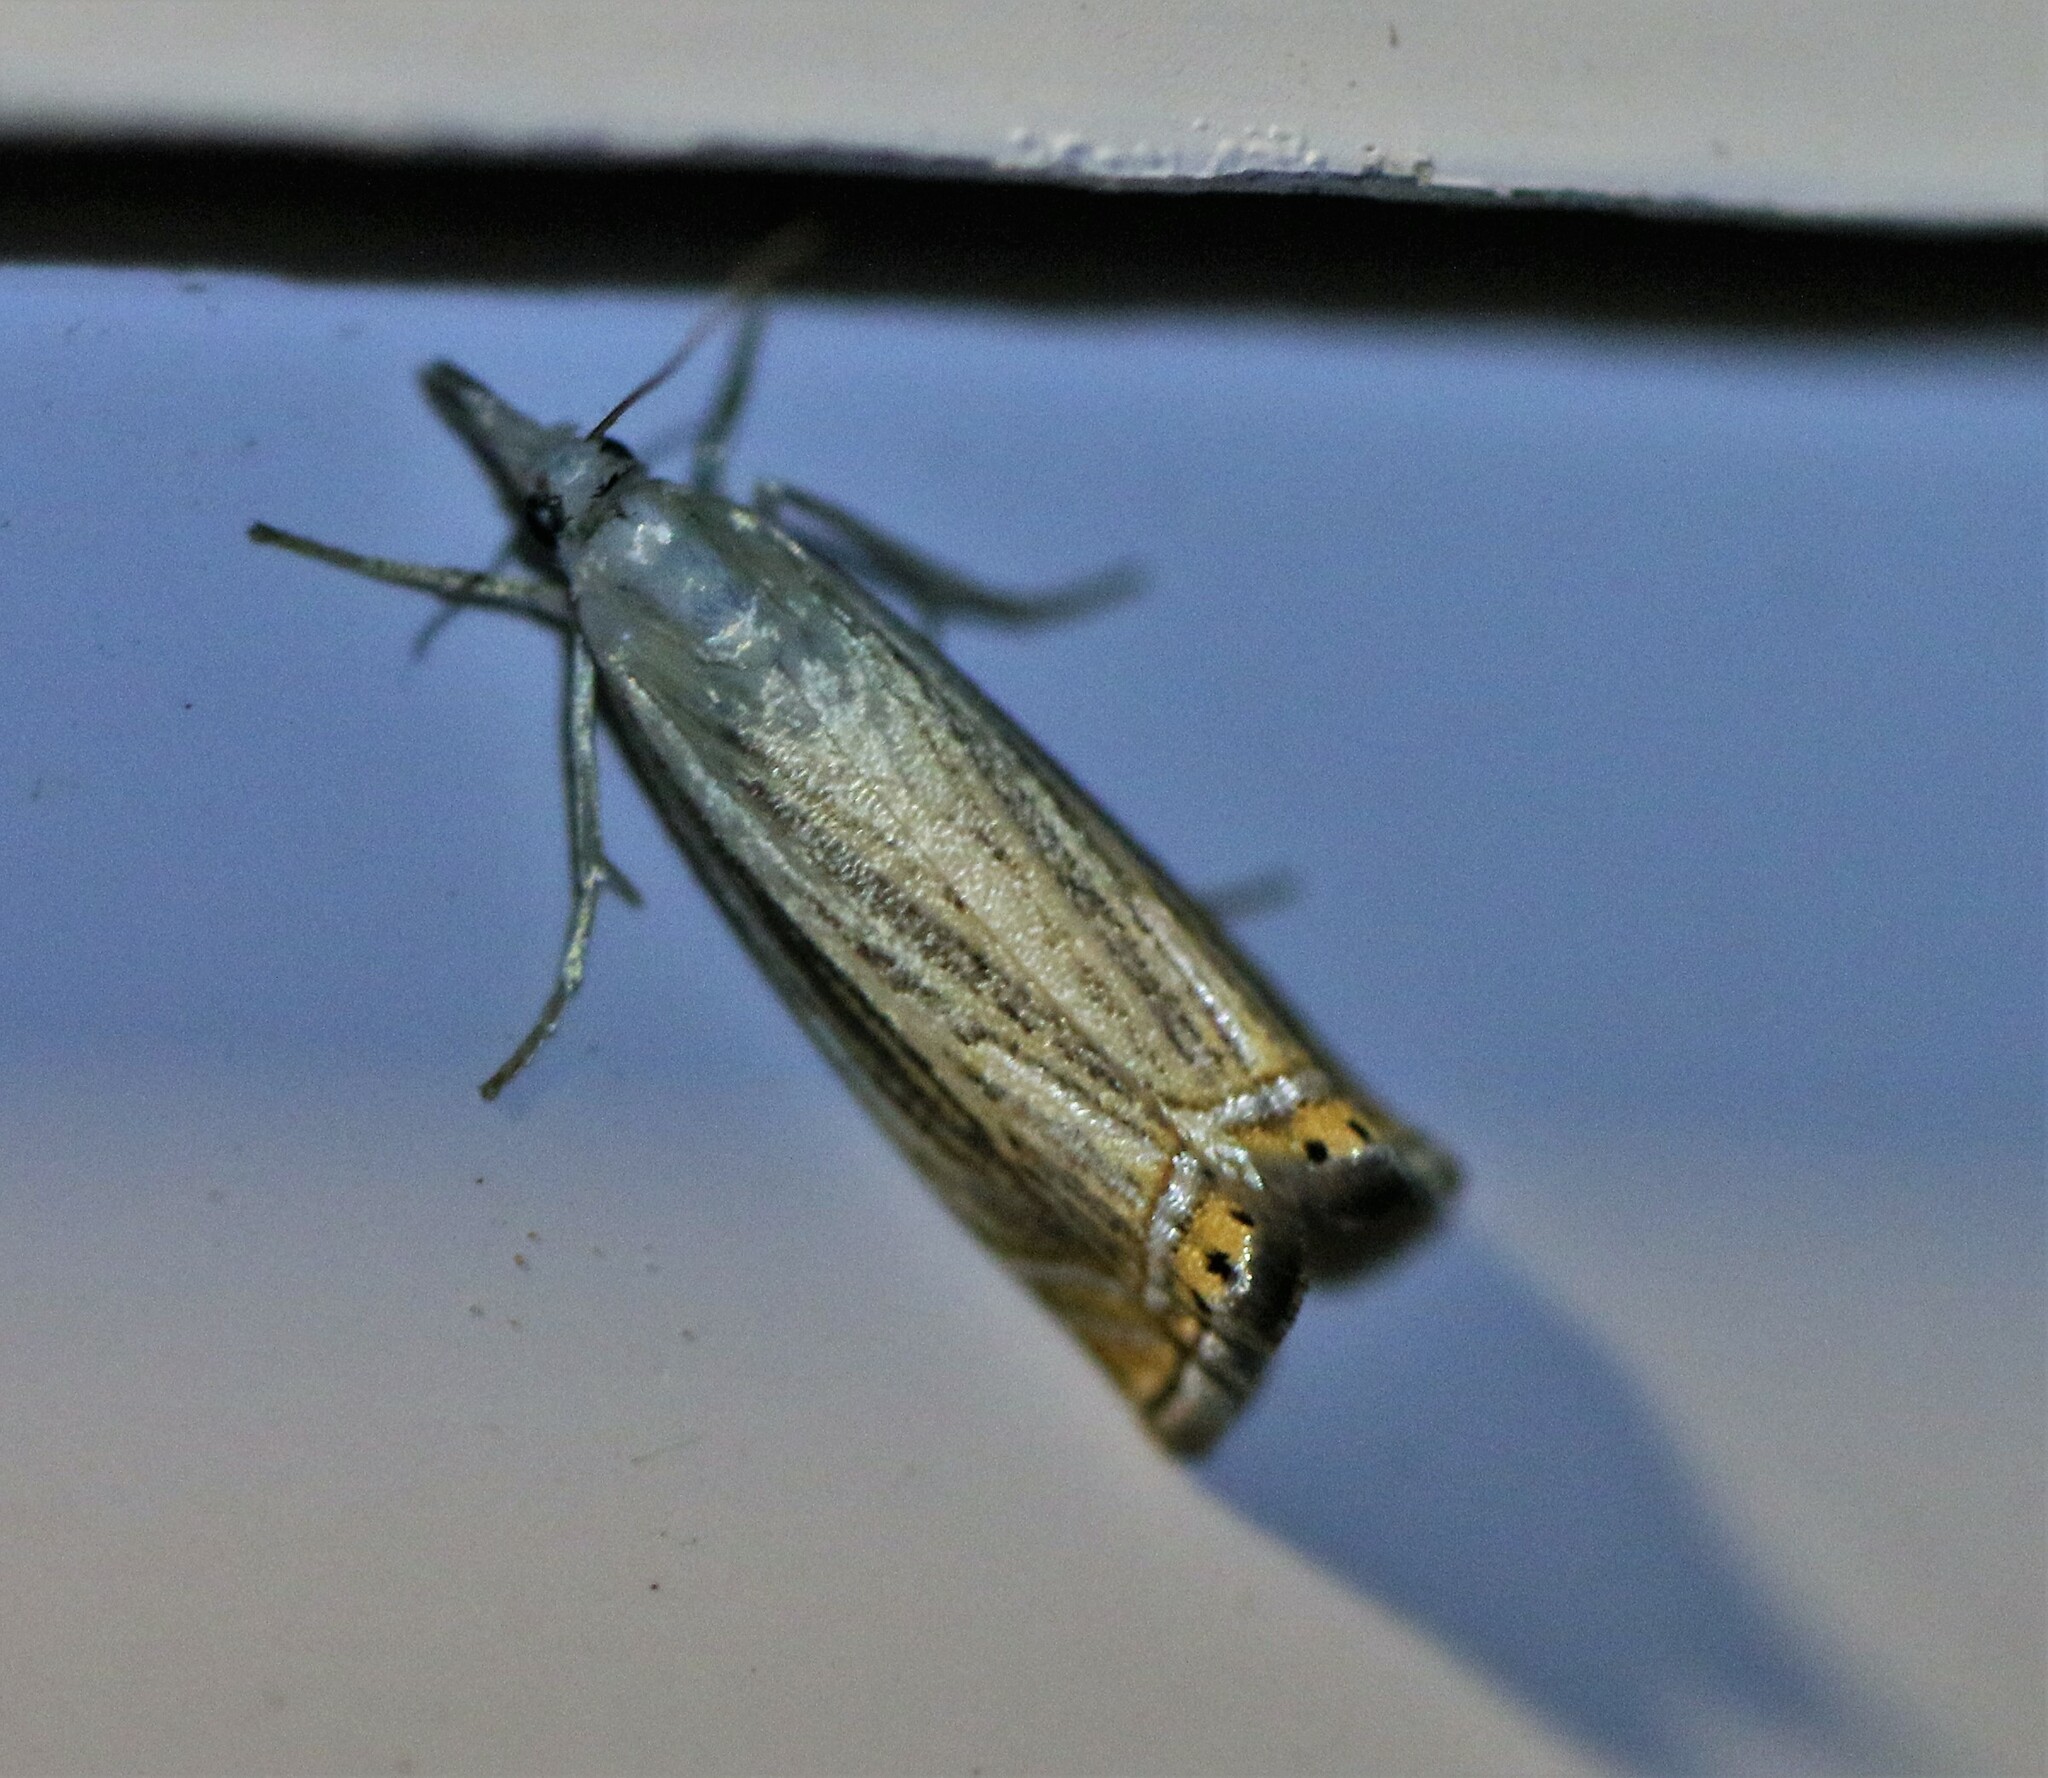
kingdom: Animalia
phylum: Arthropoda
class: Insecta
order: Lepidoptera
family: Crambidae
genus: Chrysoteuchia
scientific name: Chrysoteuchia topiarius
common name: Topiary grass-veneer
